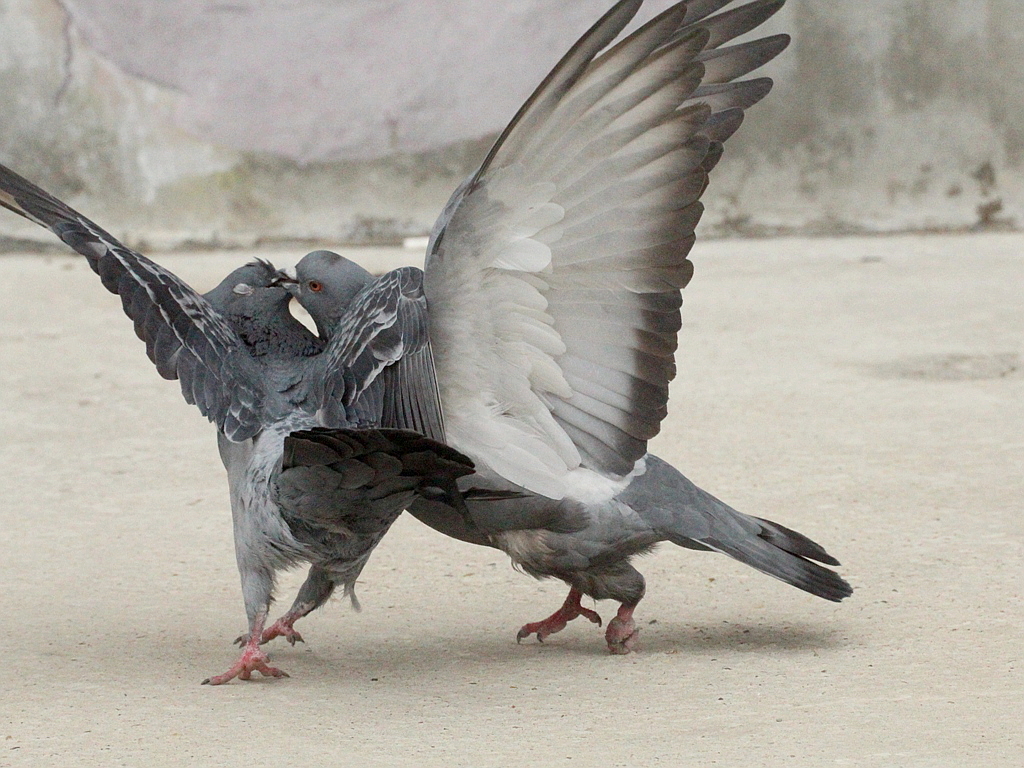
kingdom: Animalia
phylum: Chordata
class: Aves
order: Columbiformes
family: Columbidae
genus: Columba
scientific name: Columba livia
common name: Rock pigeon
